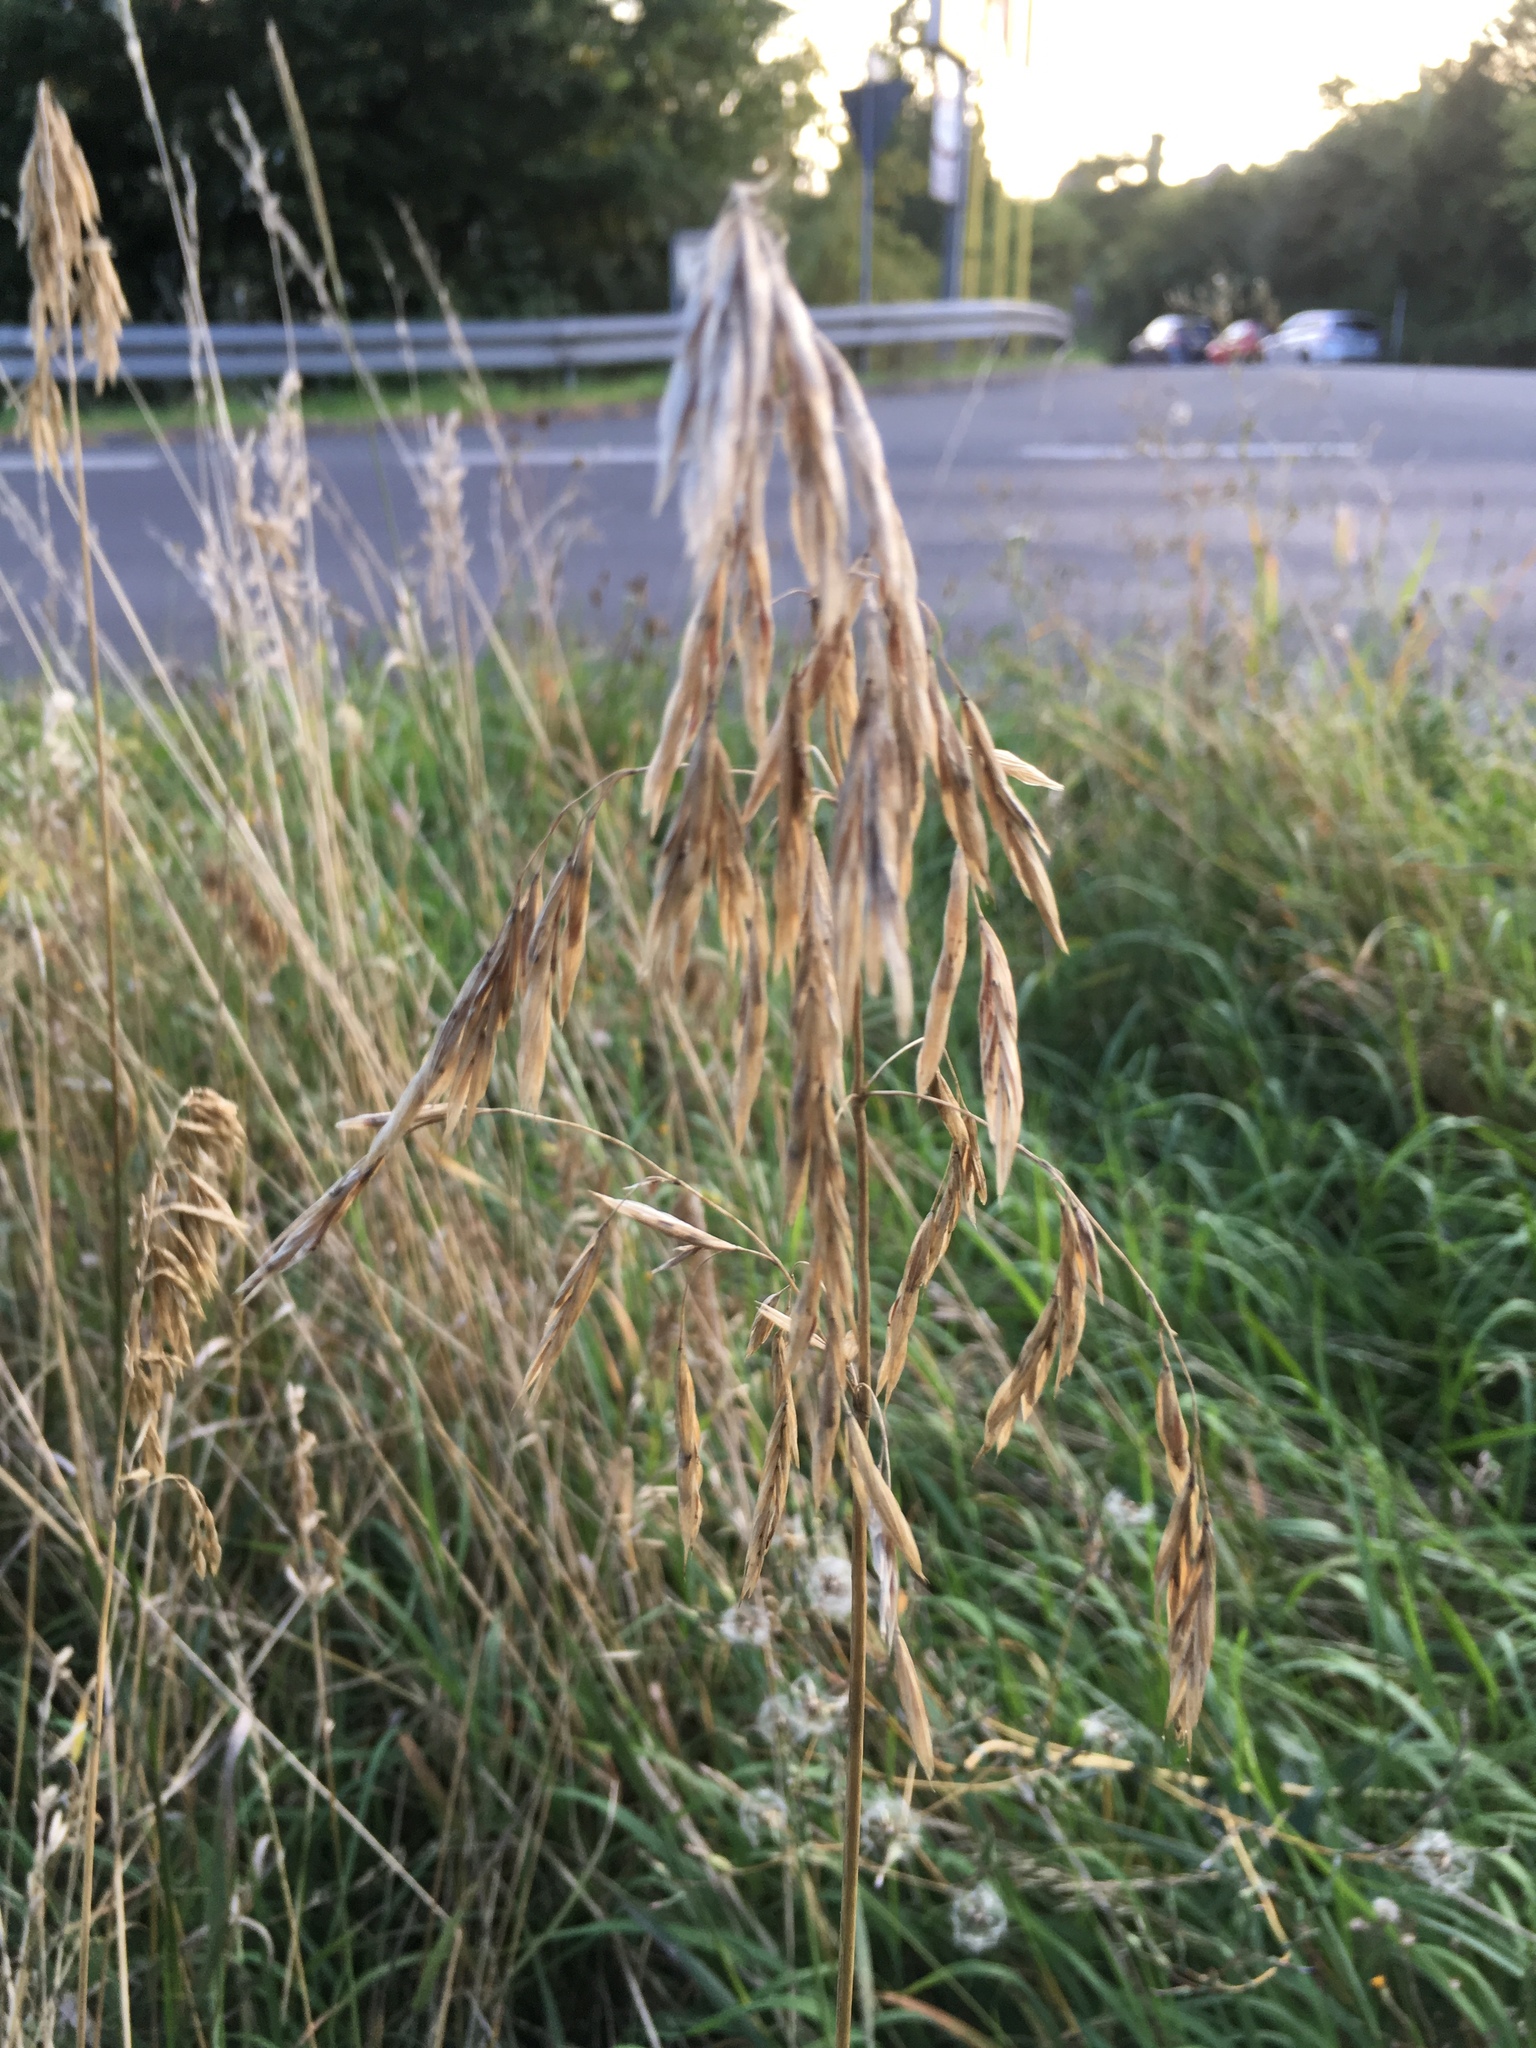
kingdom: Plantae
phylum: Tracheophyta
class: Liliopsida
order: Poales
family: Poaceae
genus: Bromus
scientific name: Bromus inermis
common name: Smooth brome
